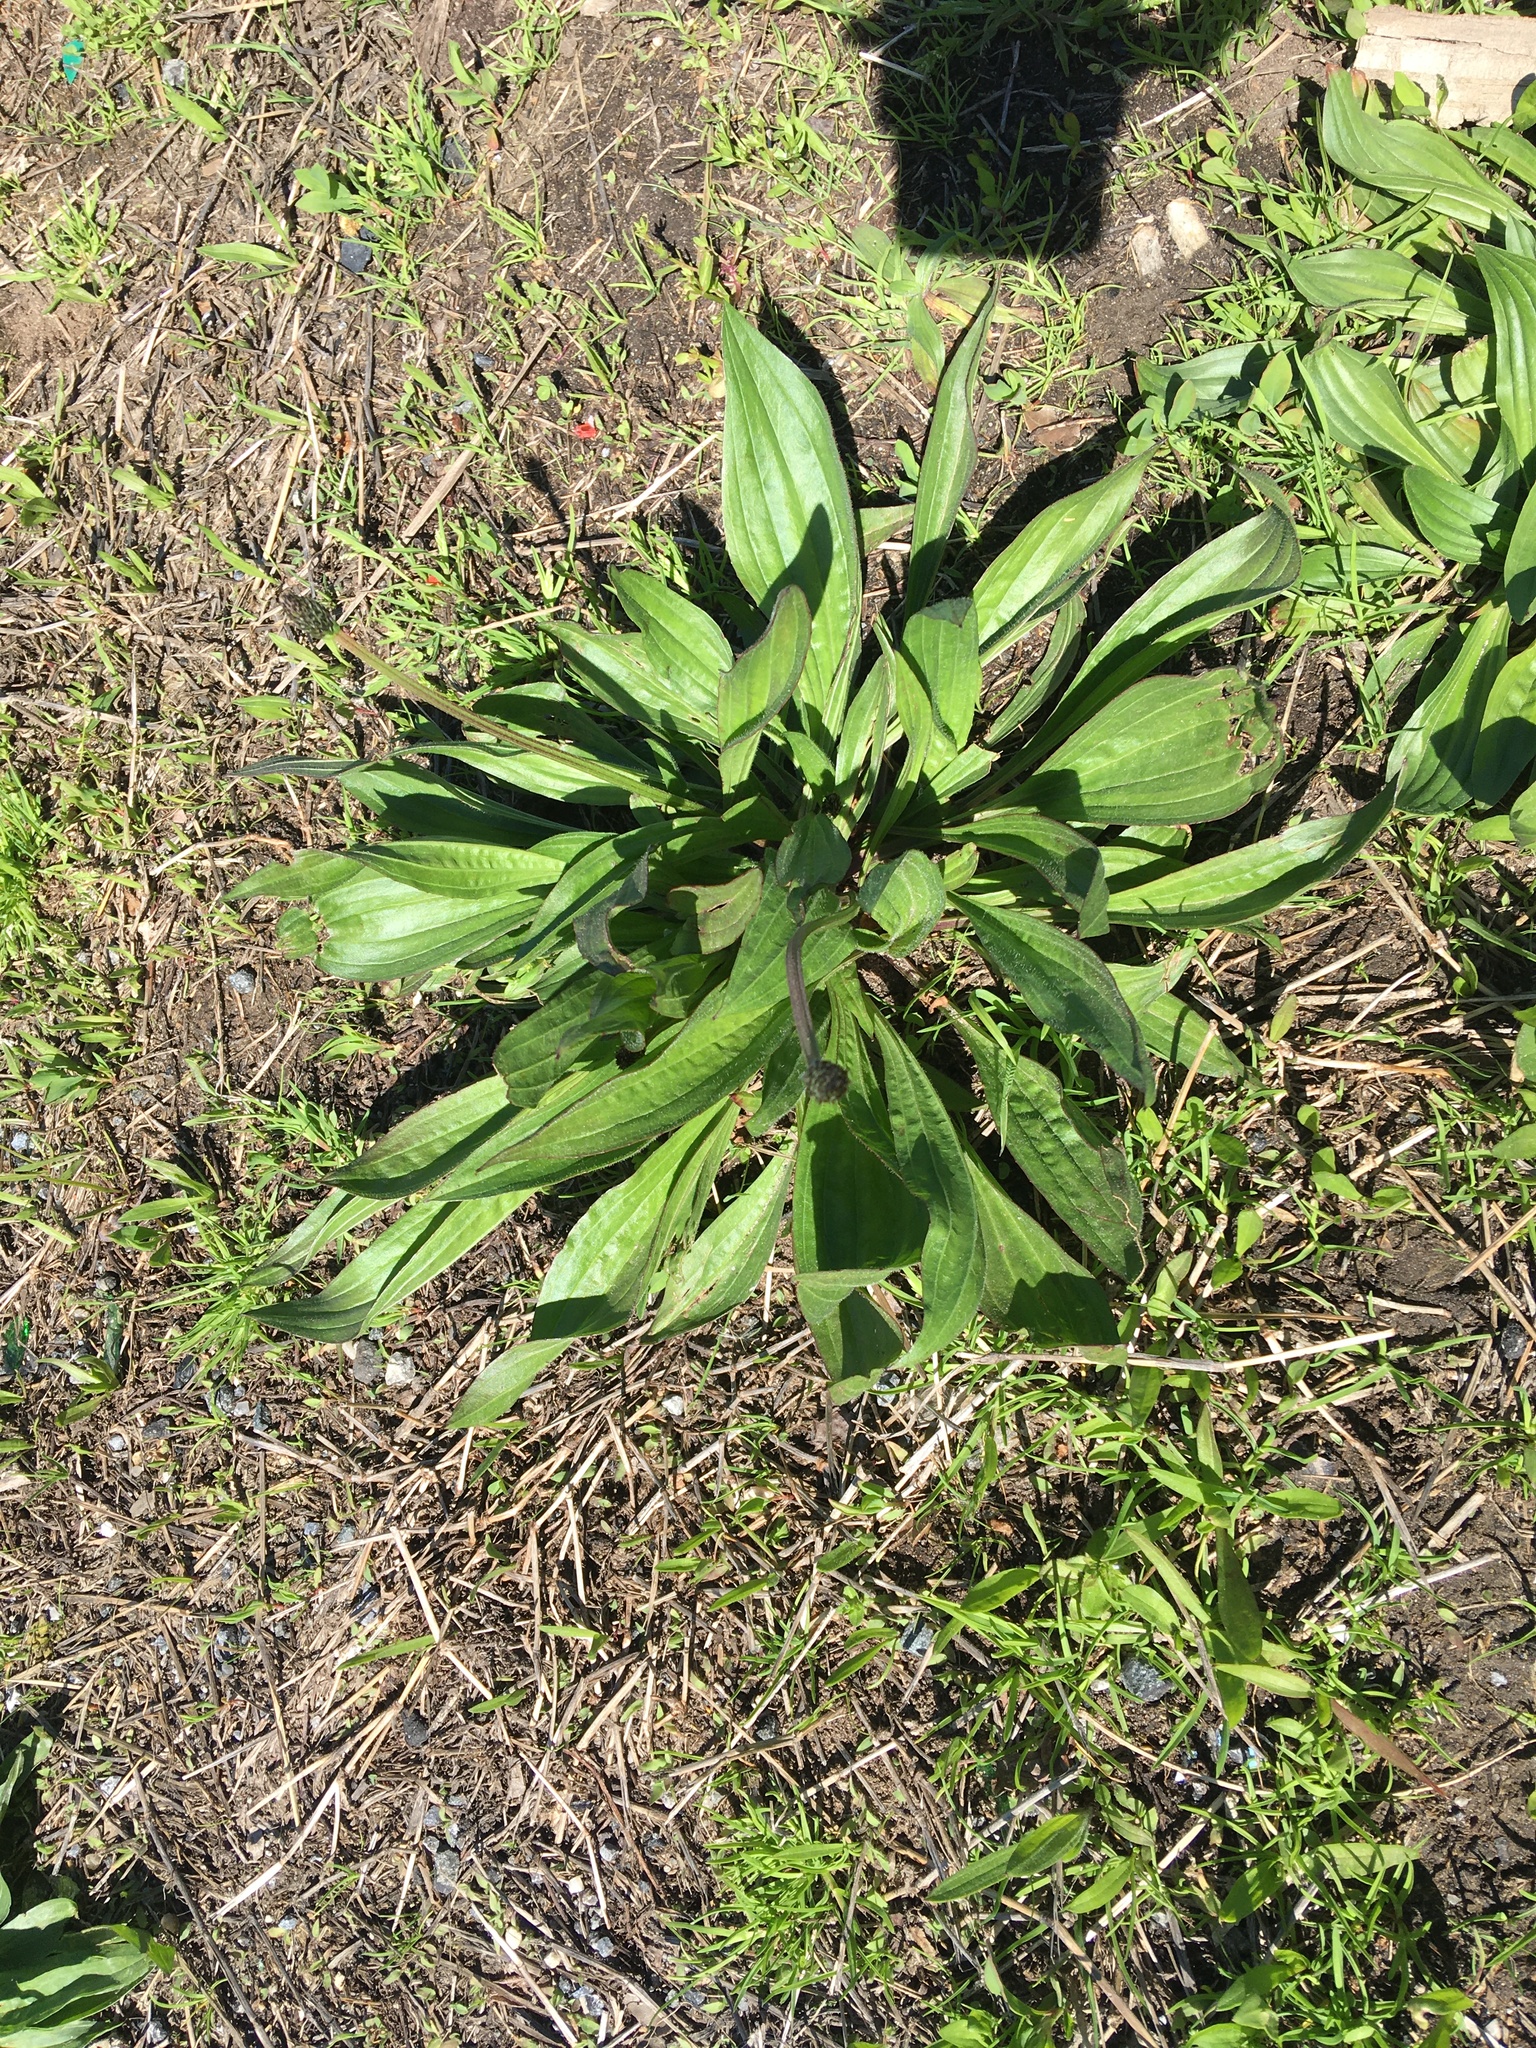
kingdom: Plantae
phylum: Tracheophyta
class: Magnoliopsida
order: Lamiales
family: Plantaginaceae
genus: Plantago
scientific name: Plantago lanceolata
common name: Ribwort plantain
